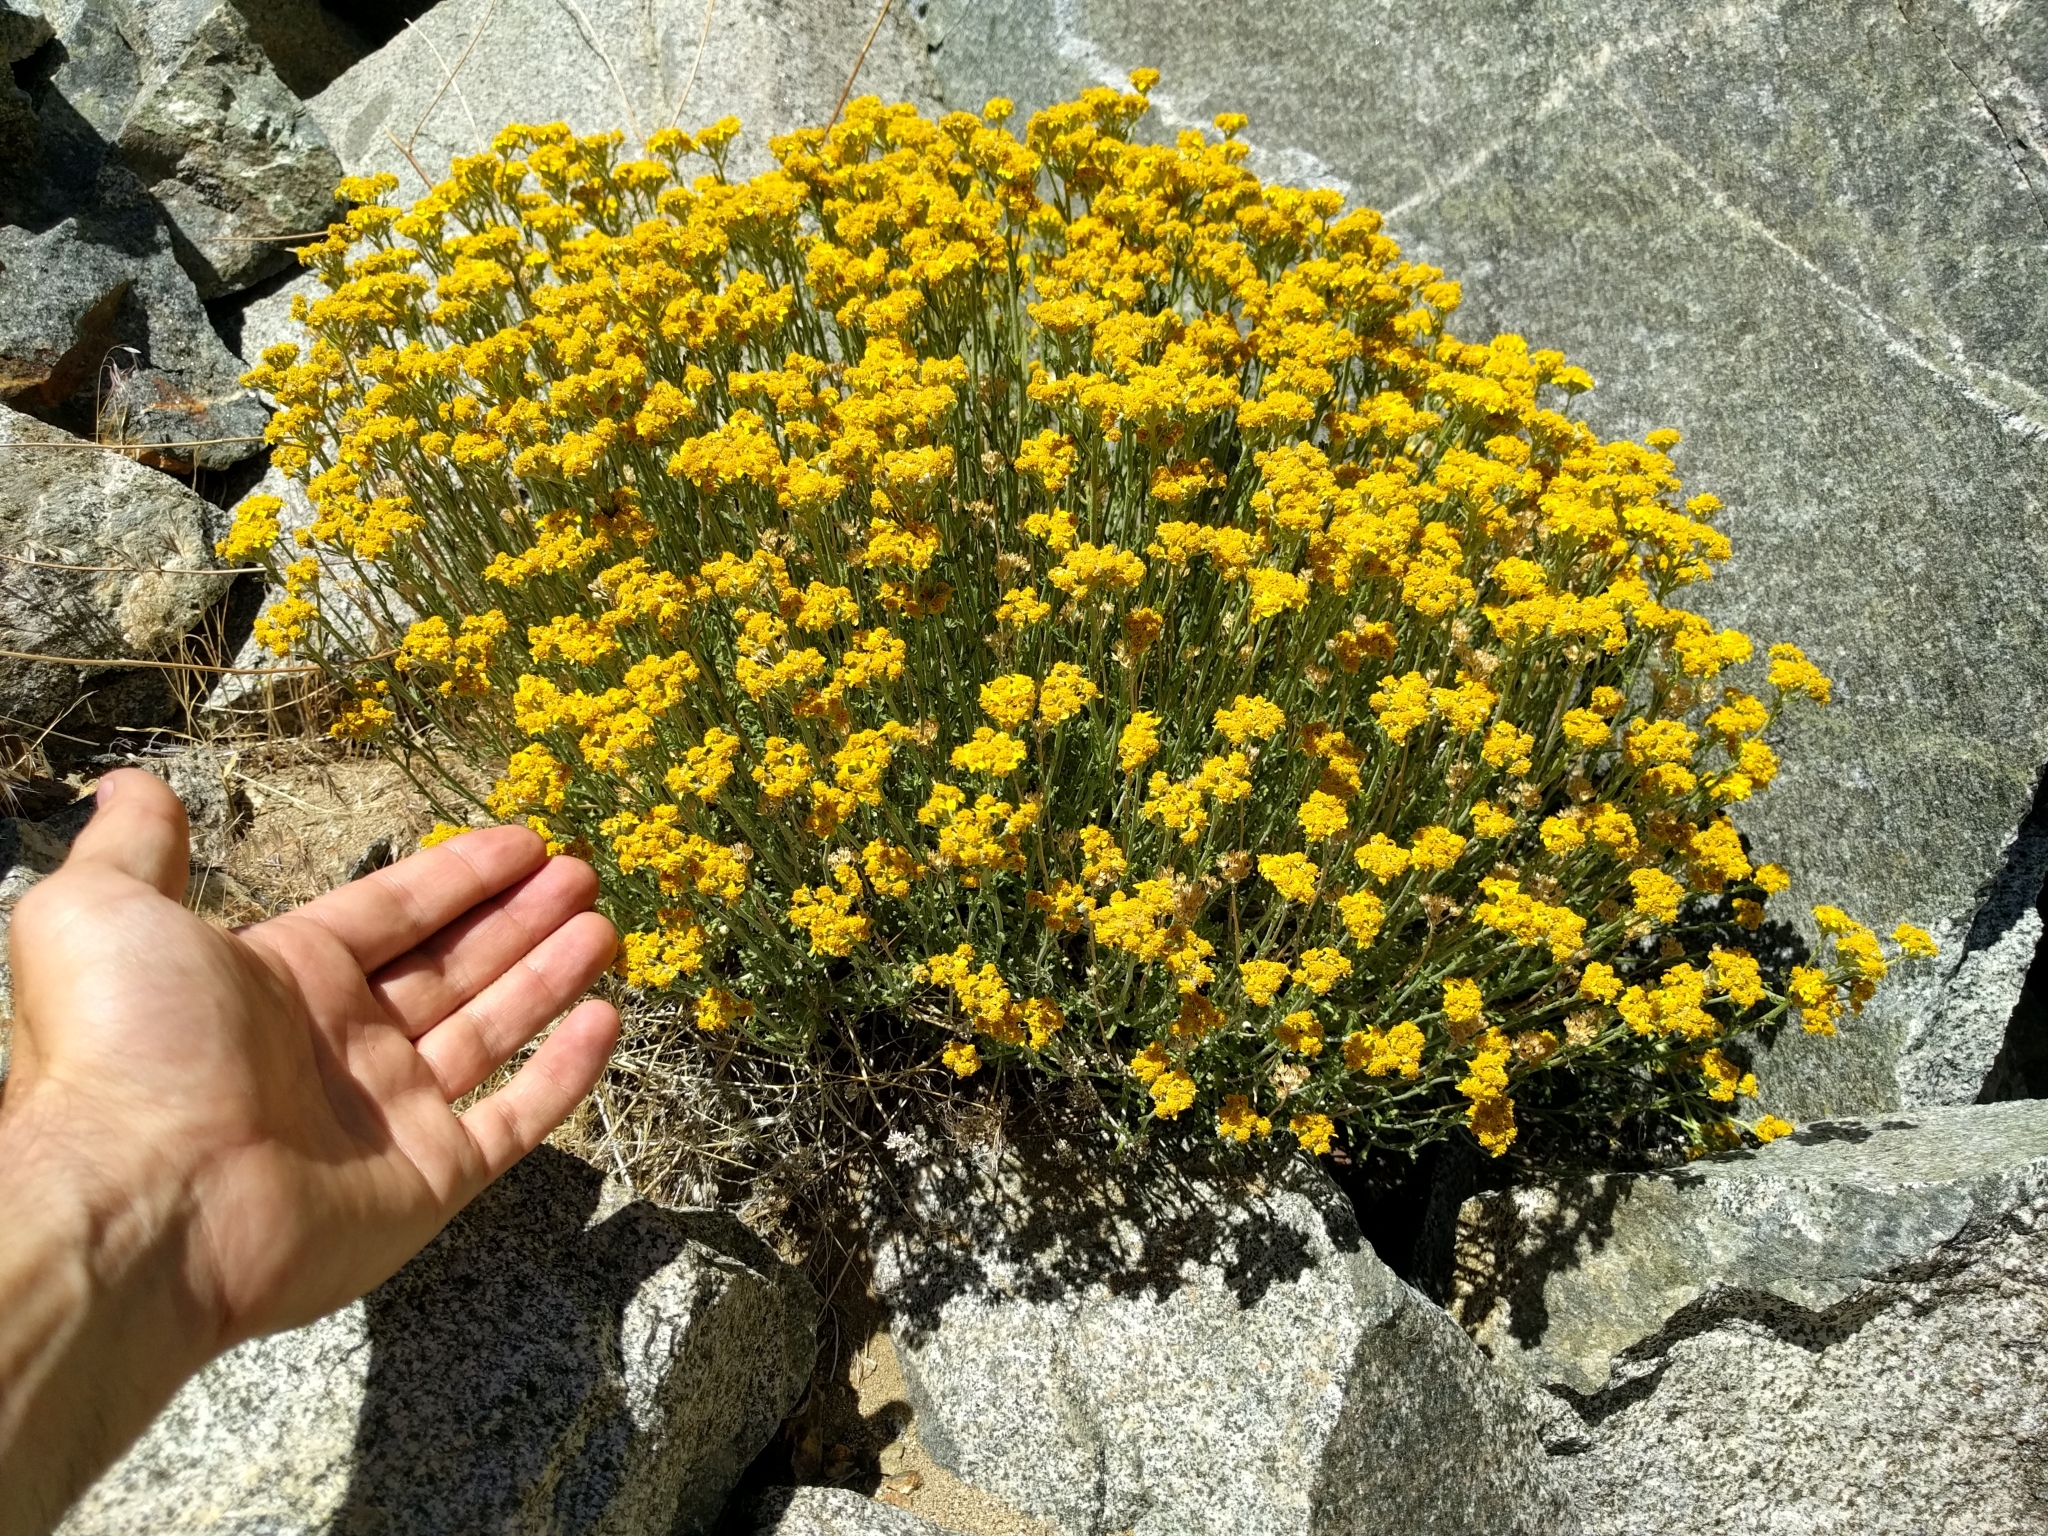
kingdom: Plantae
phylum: Tracheophyta
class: Magnoliopsida
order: Asterales
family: Asteraceae
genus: Eriophyllum
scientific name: Eriophyllum confertiflorum
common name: Golden-yarrow
